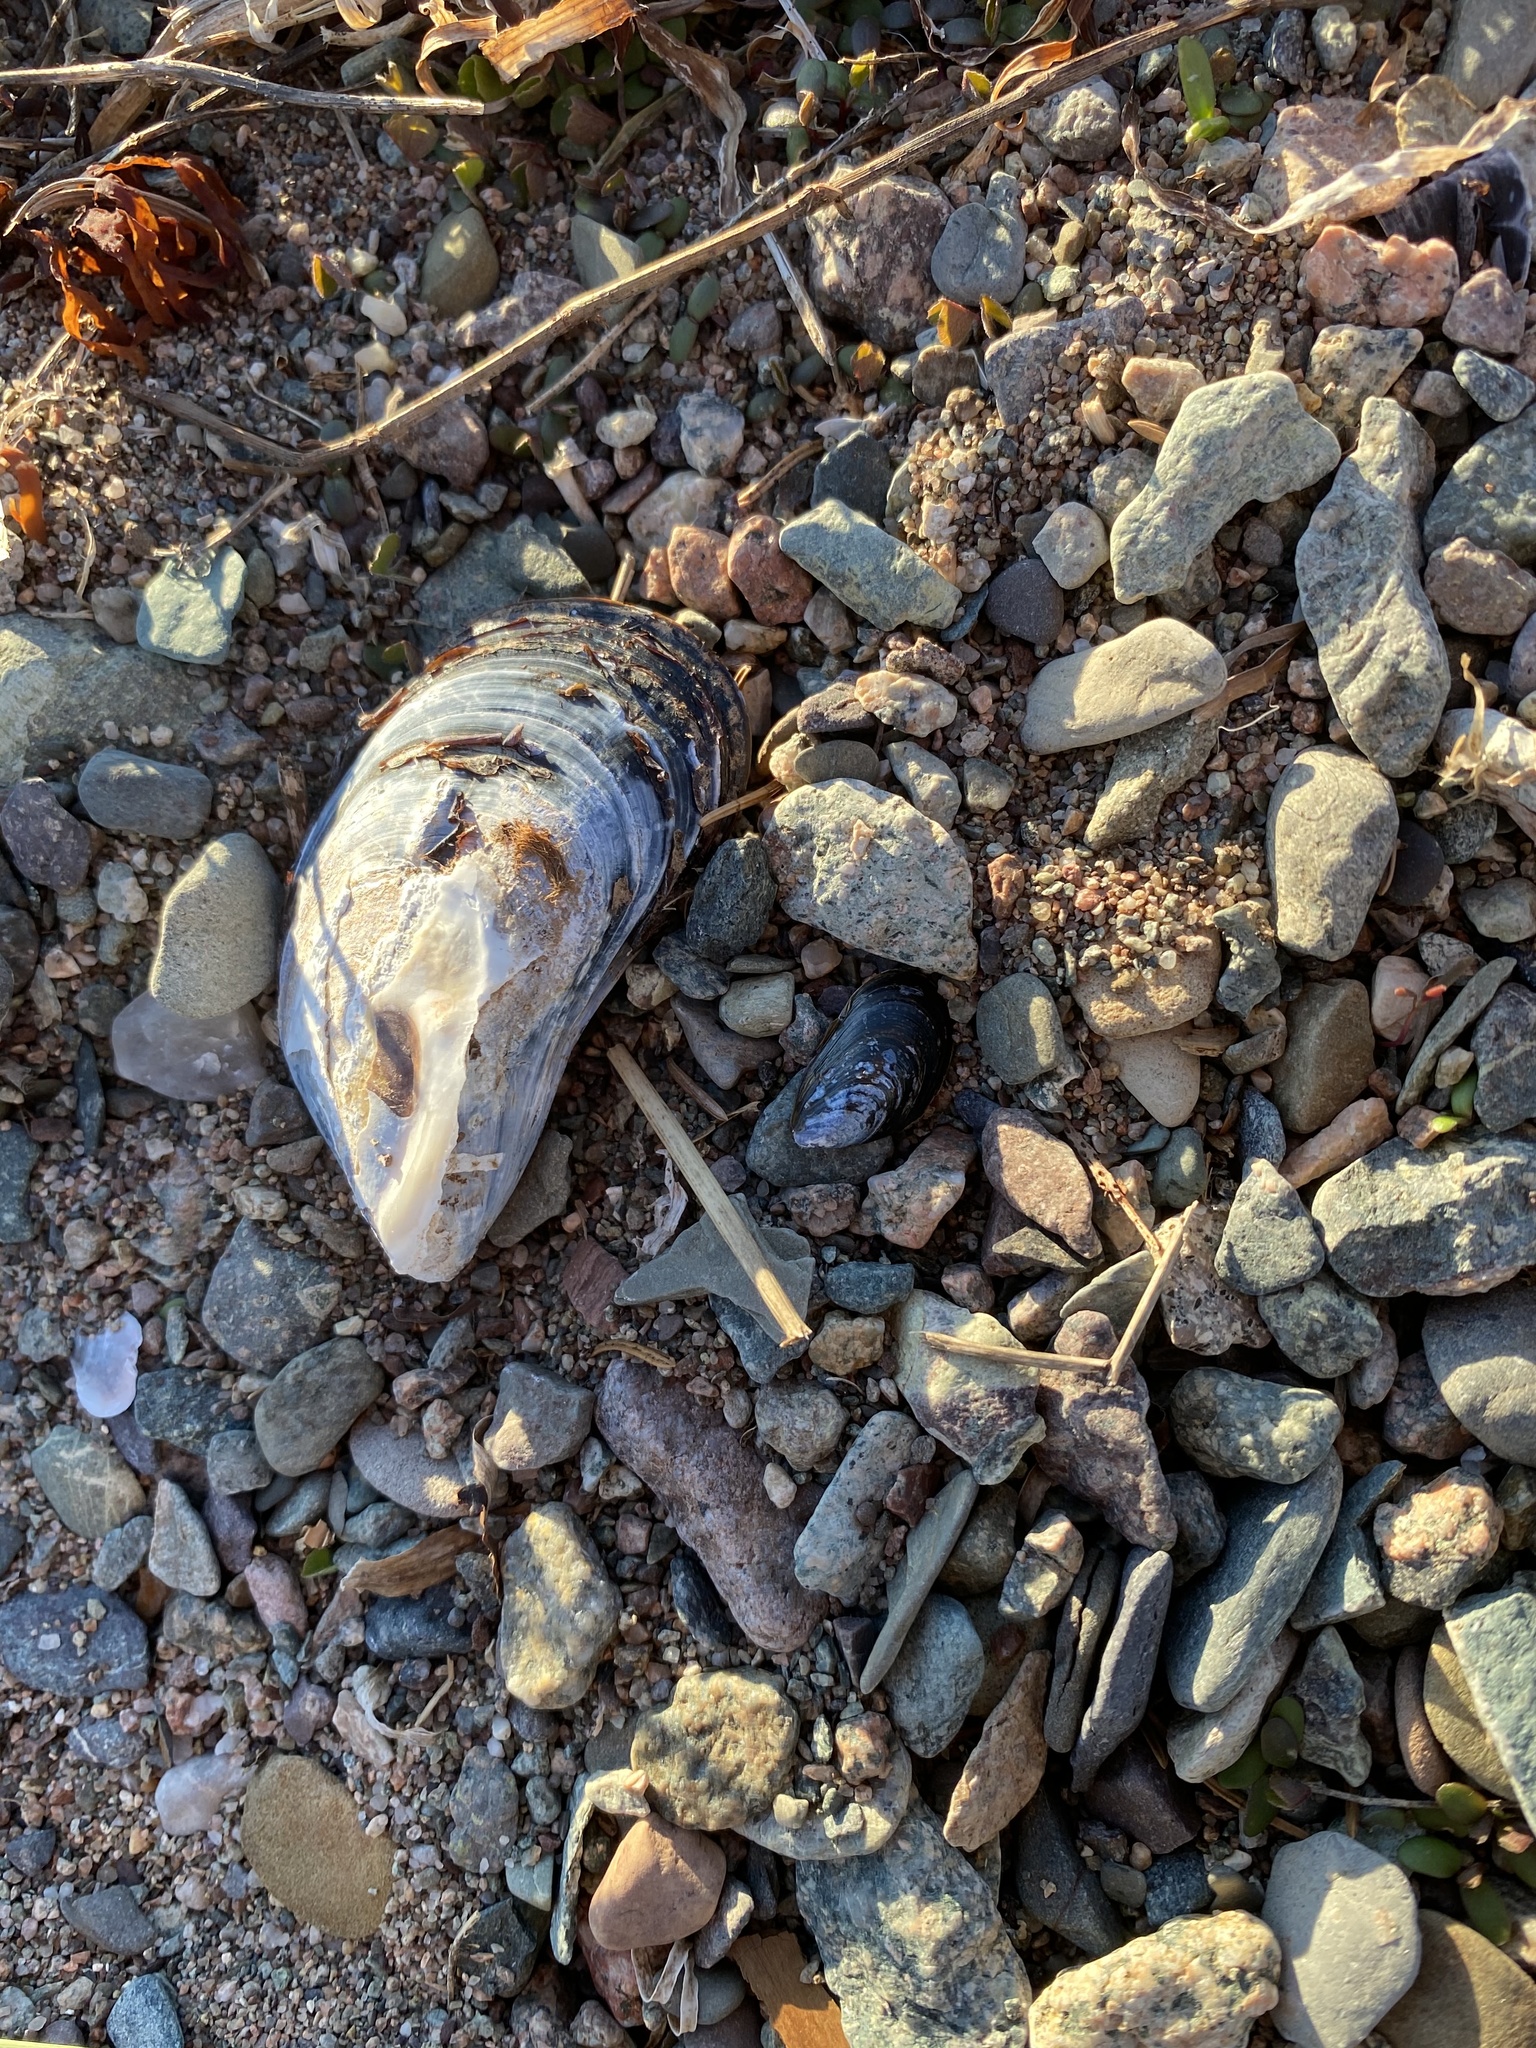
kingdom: Animalia
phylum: Mollusca
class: Bivalvia
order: Mytilida
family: Mytilidae
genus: Mytilus
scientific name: Mytilus edulis
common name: Blue mussel
